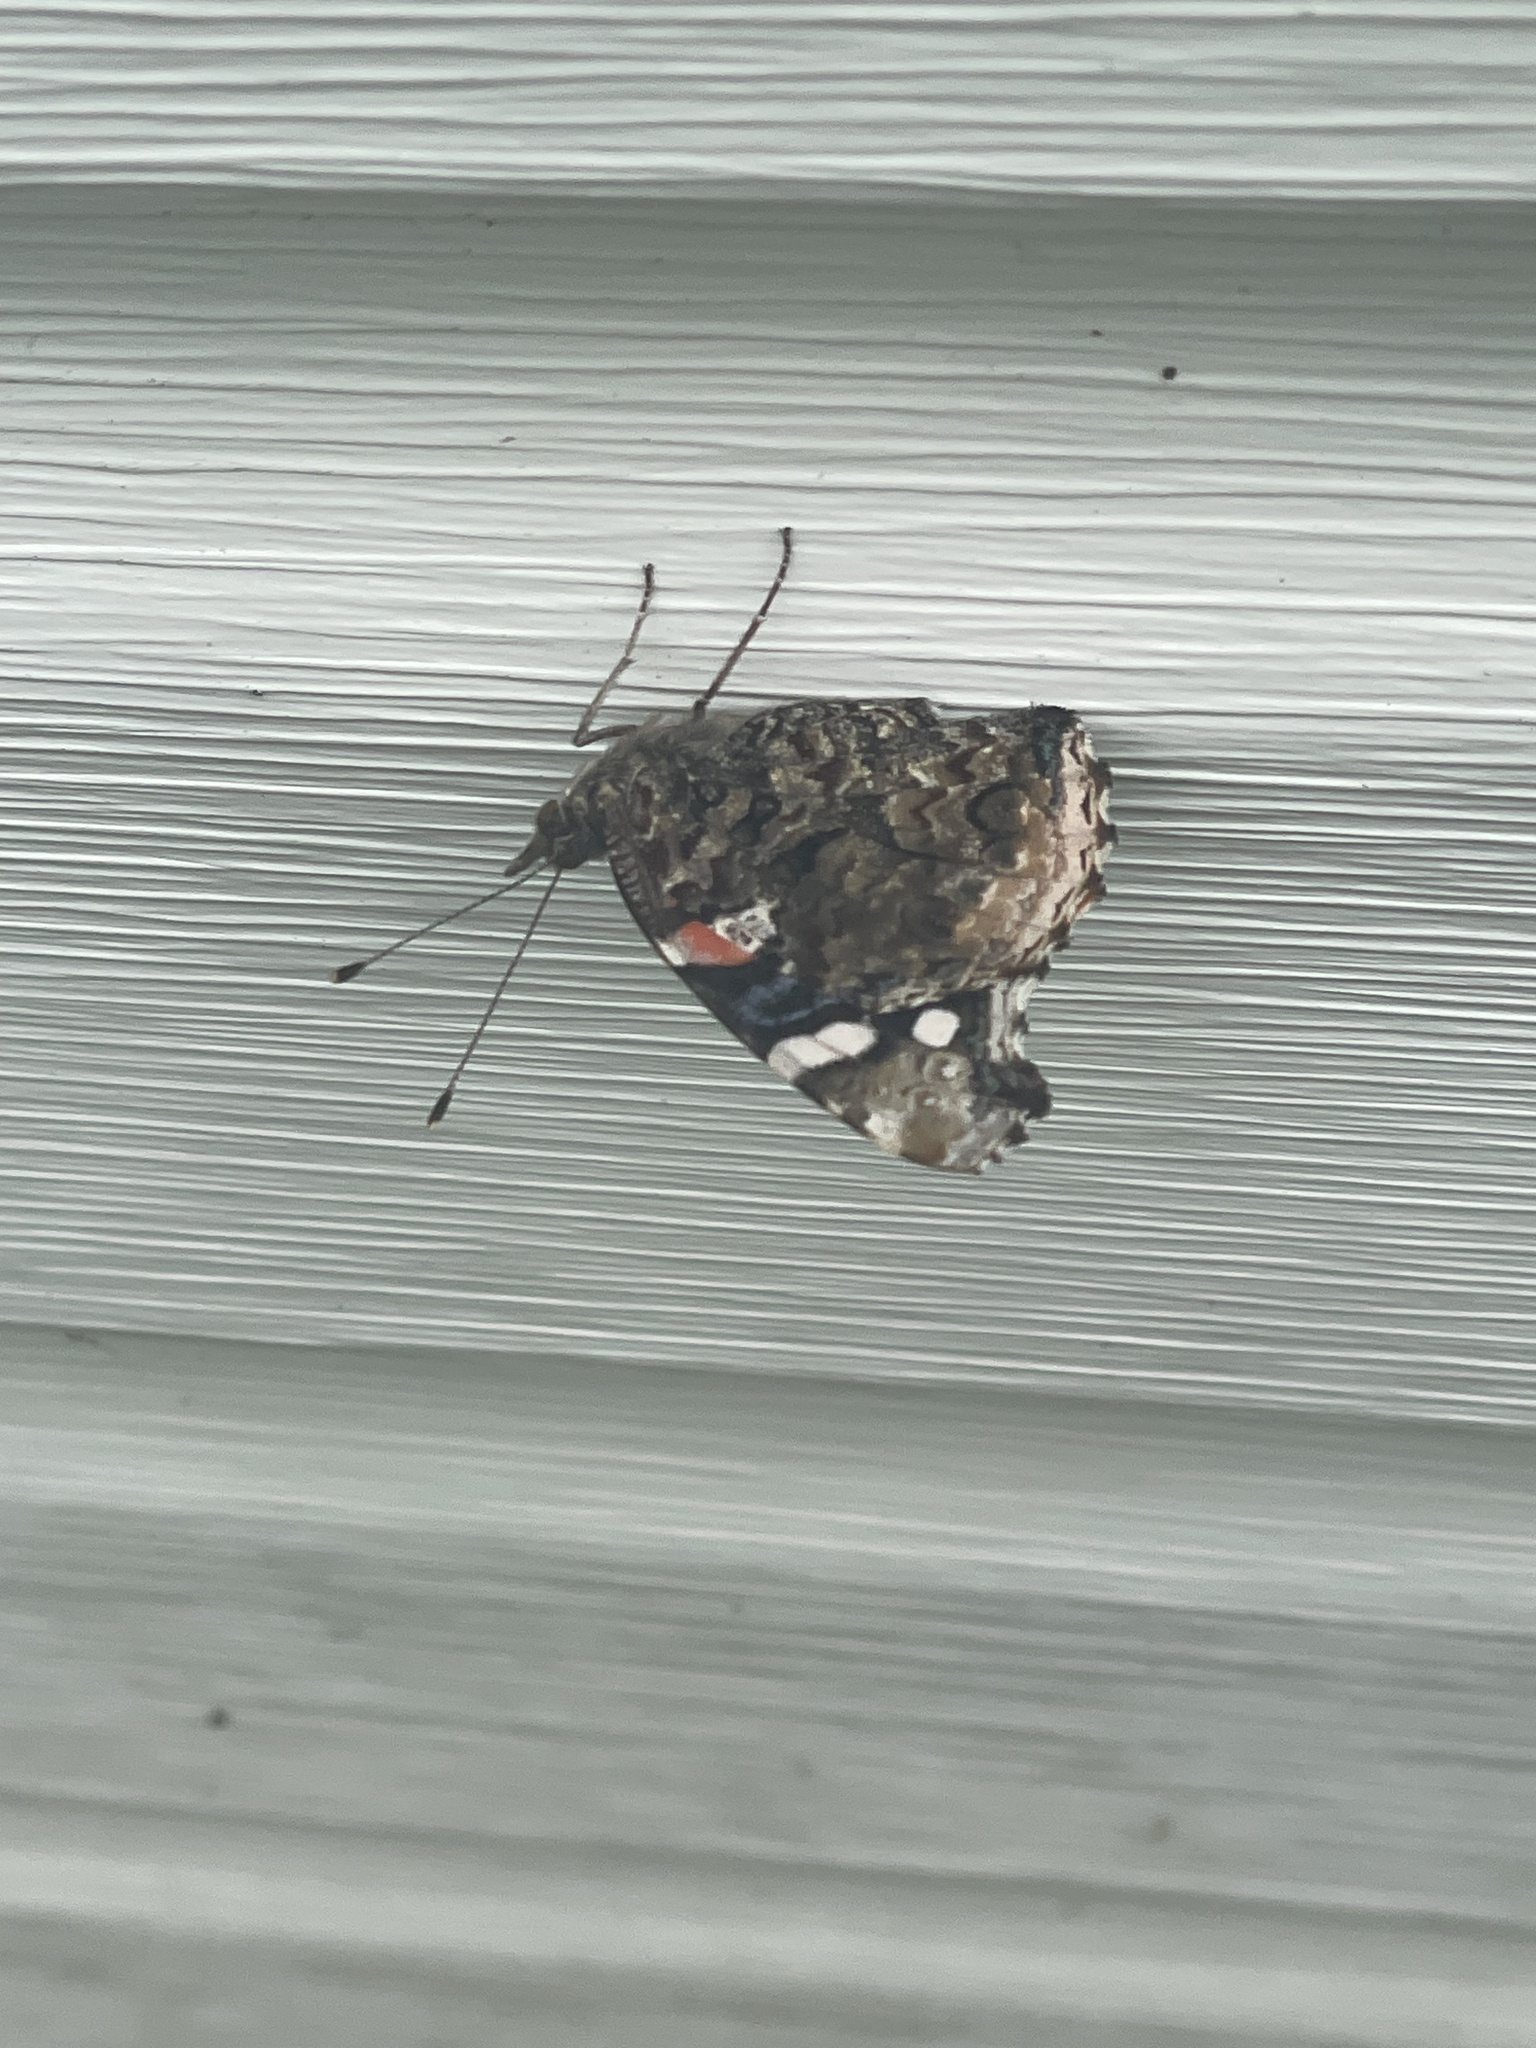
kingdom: Animalia
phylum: Arthropoda
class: Insecta
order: Lepidoptera
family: Nymphalidae
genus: Vanessa
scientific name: Vanessa atalanta
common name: Red admiral
